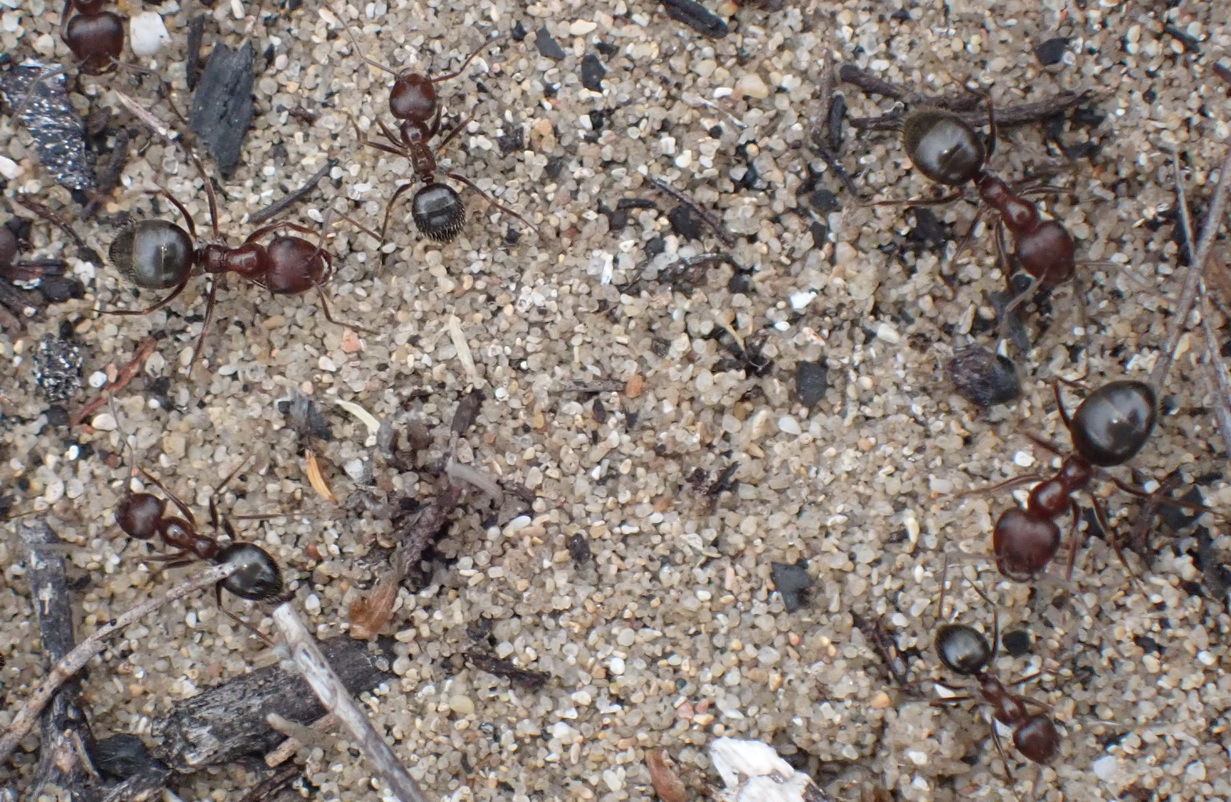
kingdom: Animalia
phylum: Arthropoda
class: Insecta
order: Hymenoptera
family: Formicidae
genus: Anoplolepis
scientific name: Anoplolepis steingroeveri
